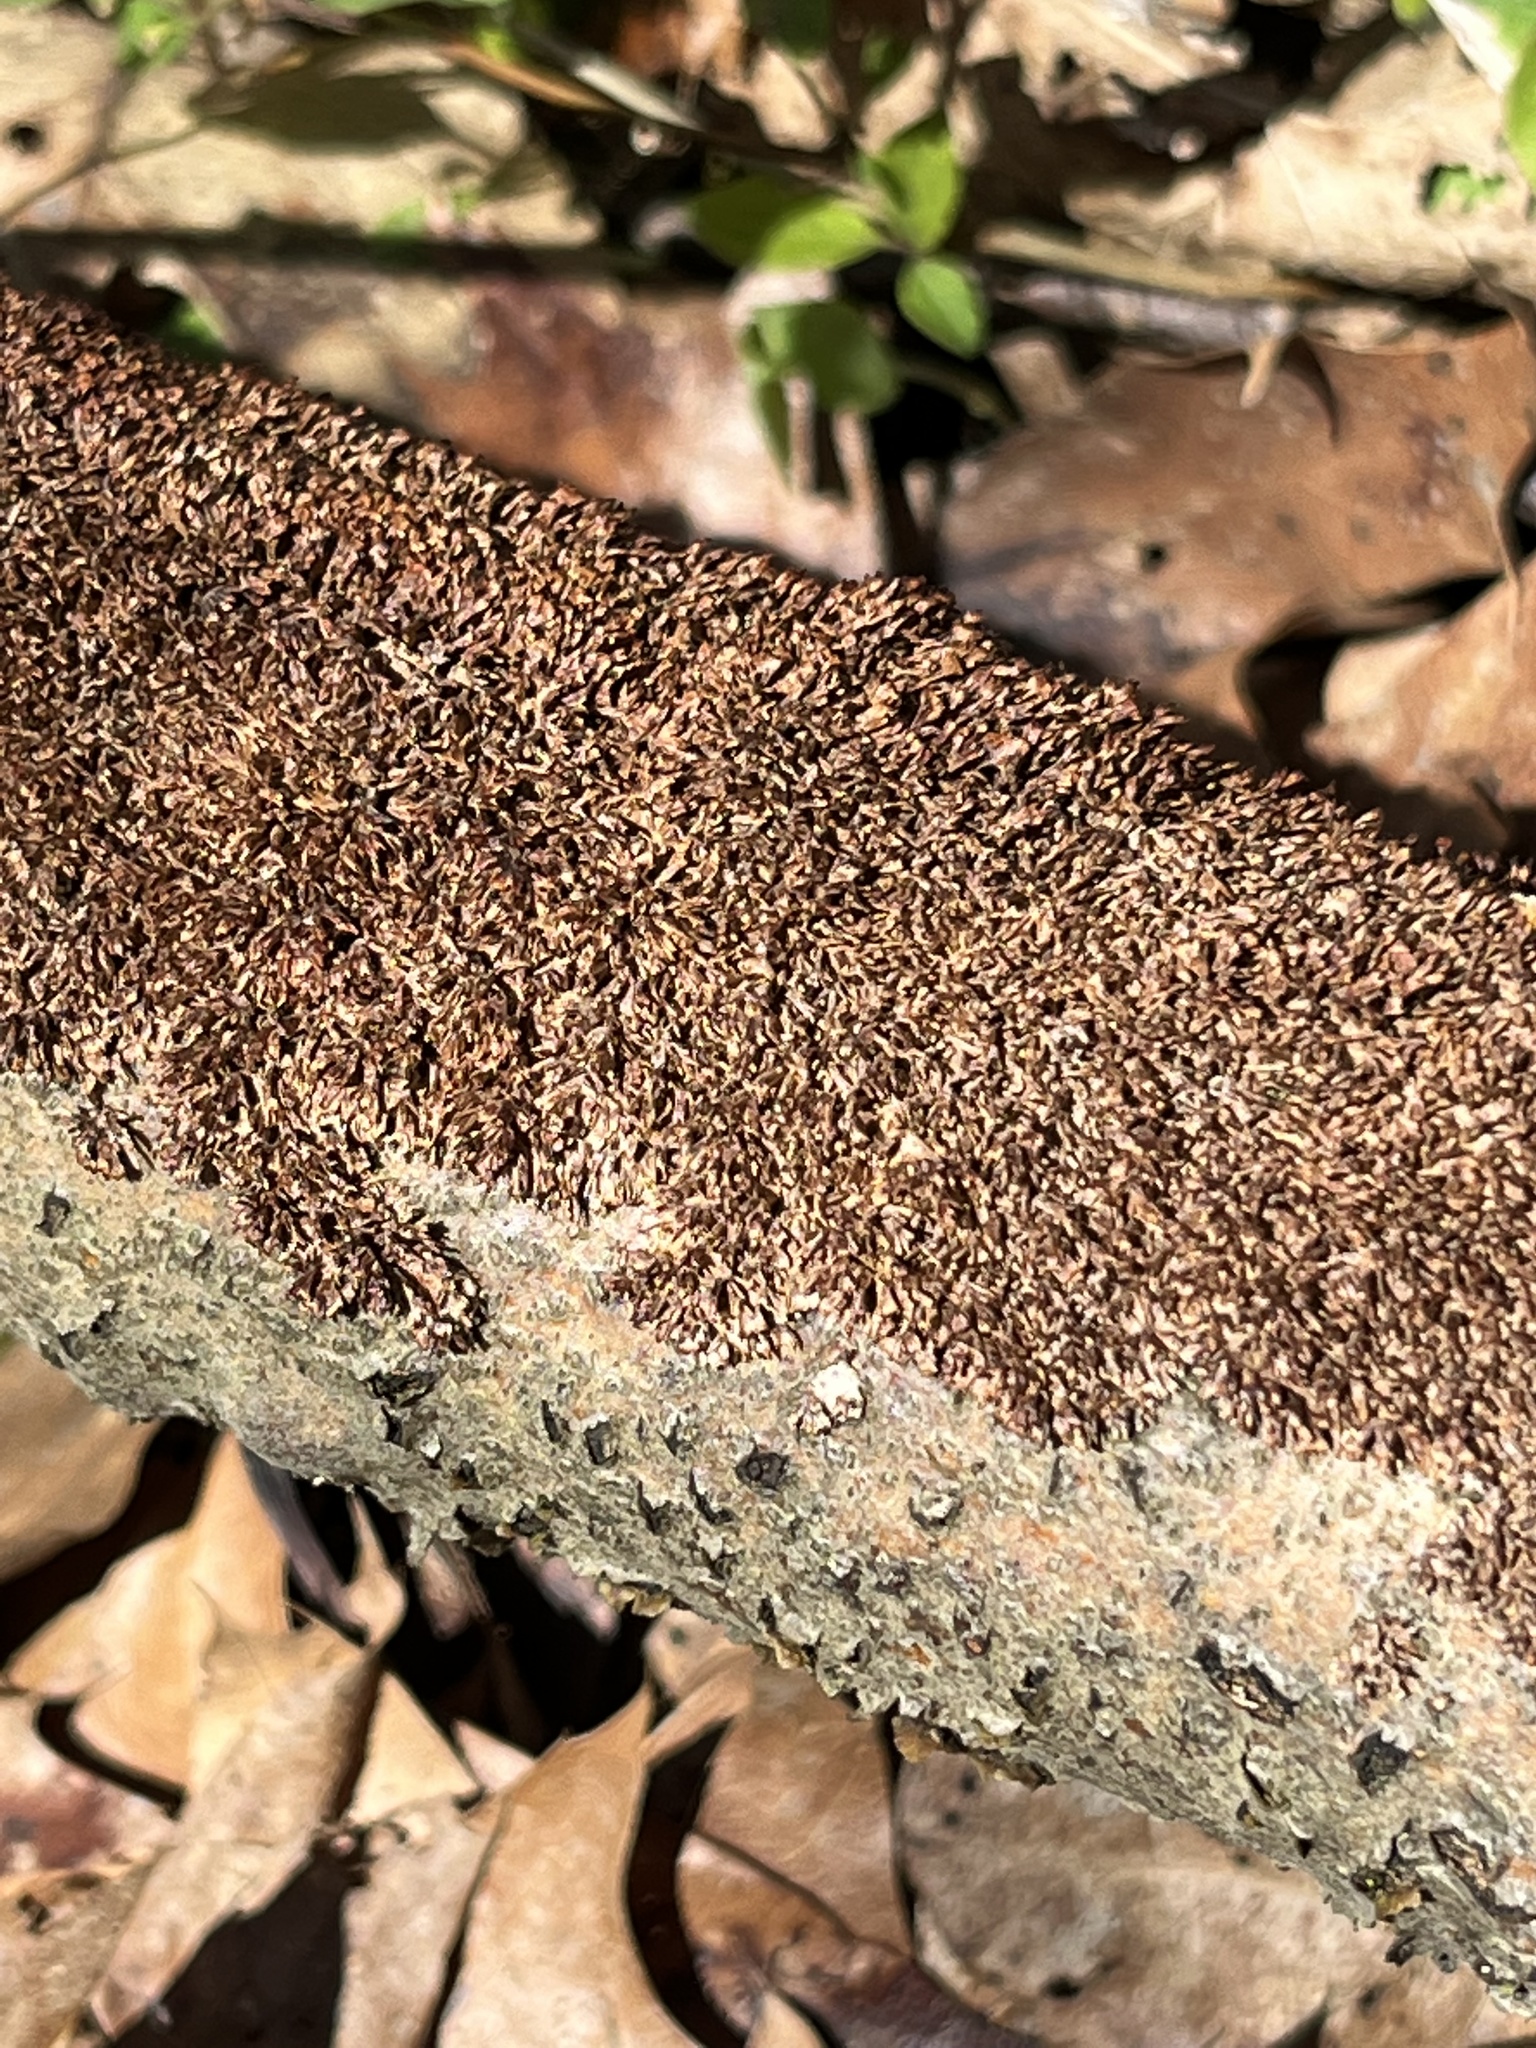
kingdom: Fungi
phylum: Basidiomycota
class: Agaricomycetes
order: Hymenochaetales
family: Hymenochaetaceae
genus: Hydnoporia
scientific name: Hydnoporia olivacea
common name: Brown-toothed crust fungus
